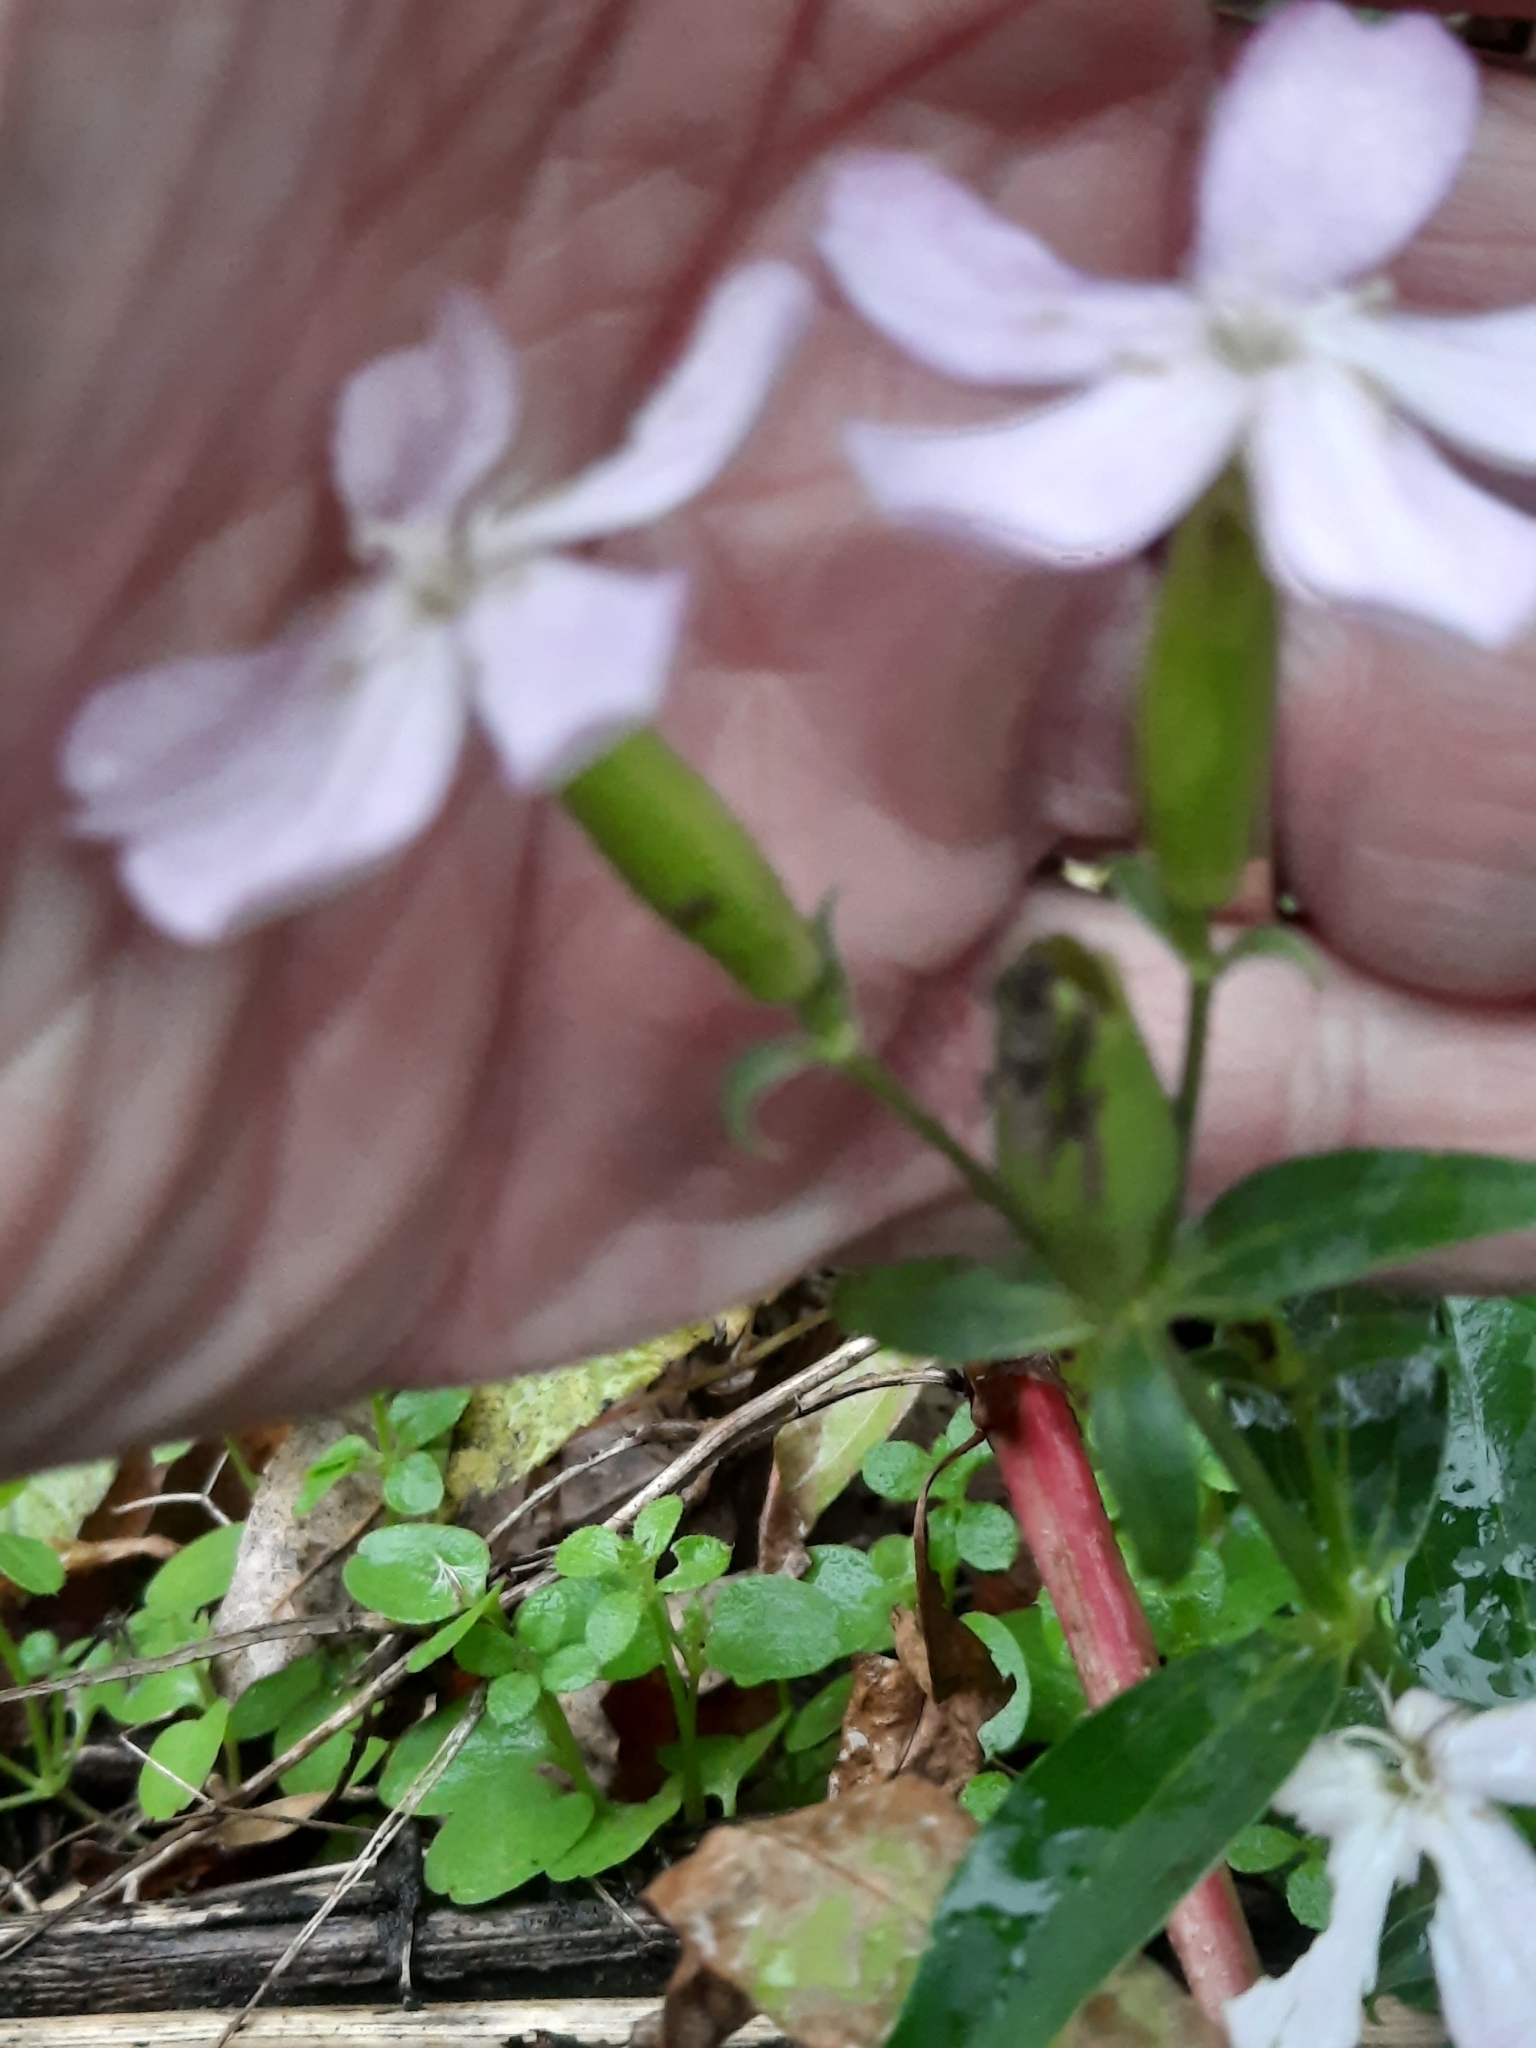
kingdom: Plantae
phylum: Tracheophyta
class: Magnoliopsida
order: Caryophyllales
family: Caryophyllaceae
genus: Saponaria
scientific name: Saponaria officinalis
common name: Soapwort
